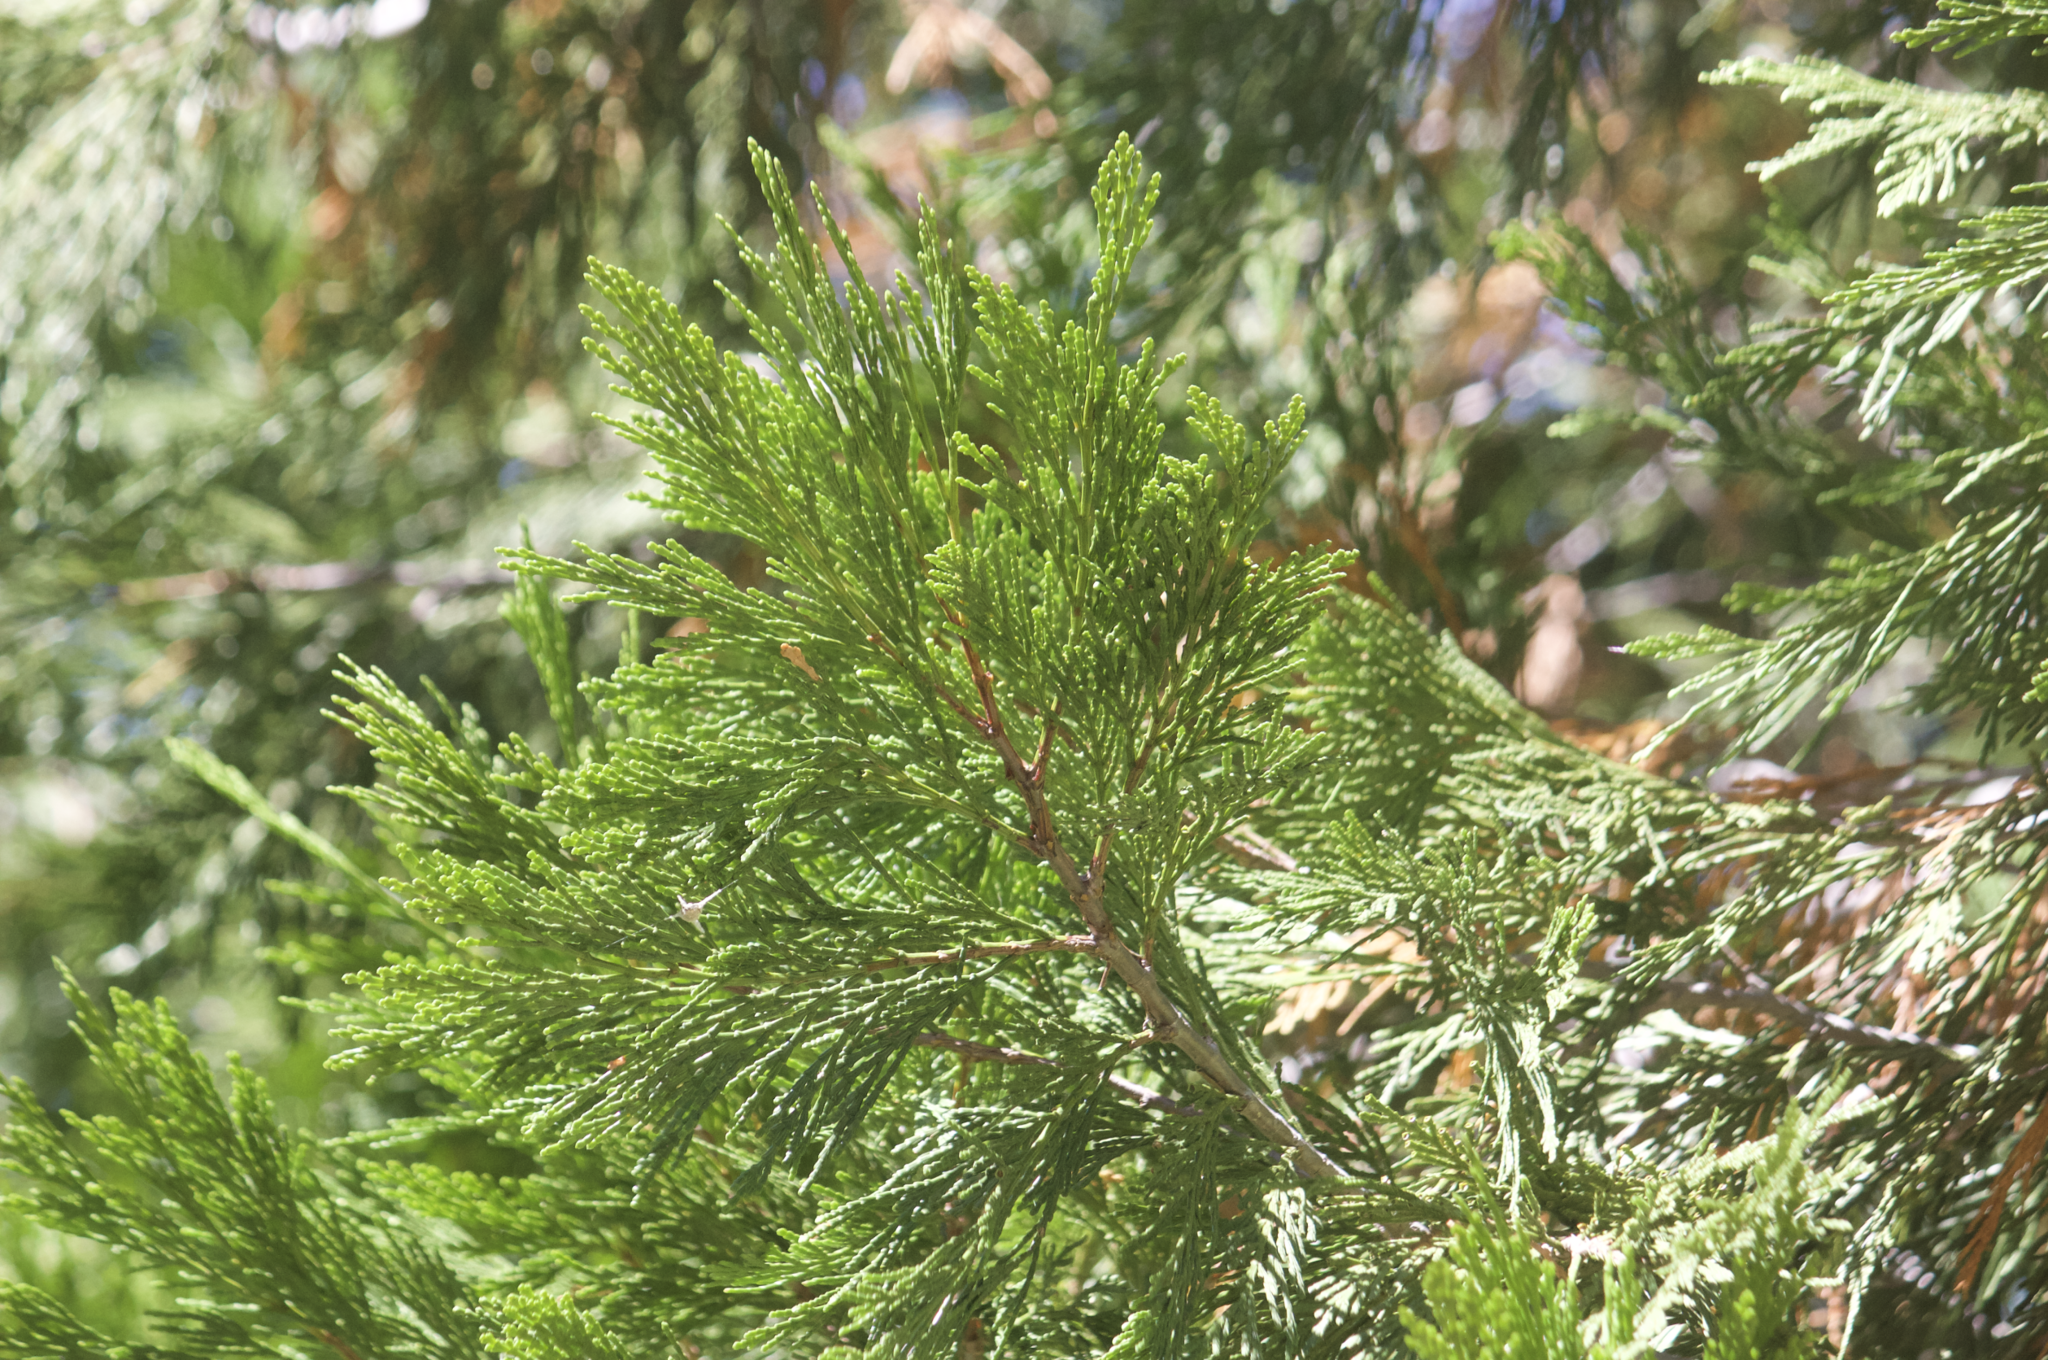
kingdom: Plantae
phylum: Tracheophyta
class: Pinopsida
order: Pinales
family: Cupressaceae
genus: Calocedrus
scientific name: Calocedrus decurrens
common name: Californian incense-cedar
